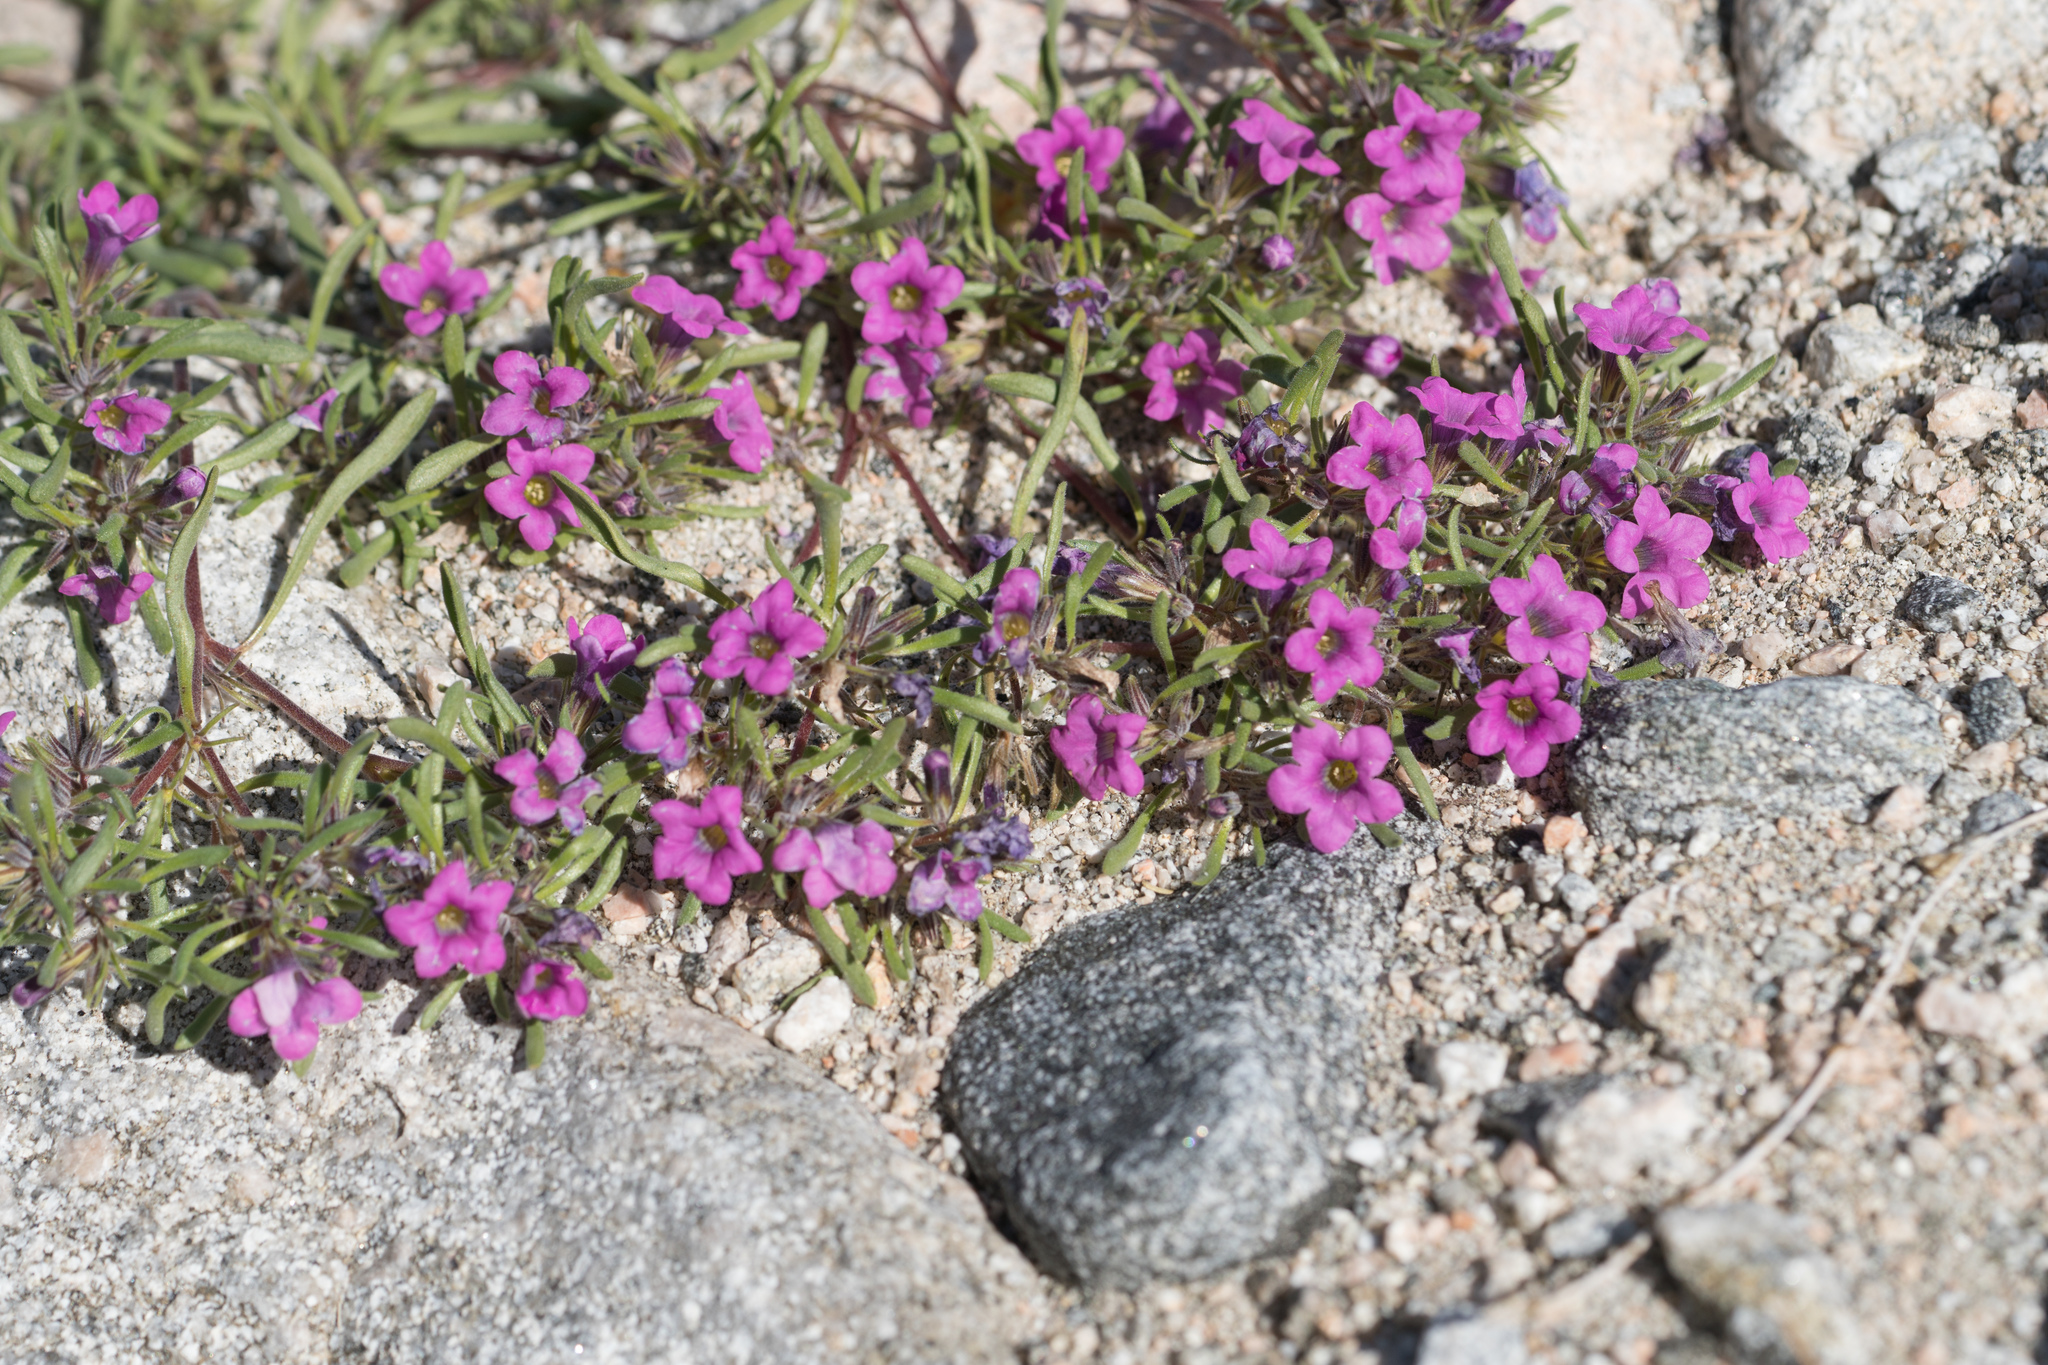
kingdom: Plantae
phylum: Tracheophyta
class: Magnoliopsida
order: Boraginales
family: Namaceae
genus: Nama
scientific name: Nama demissa
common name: Leafy nama
